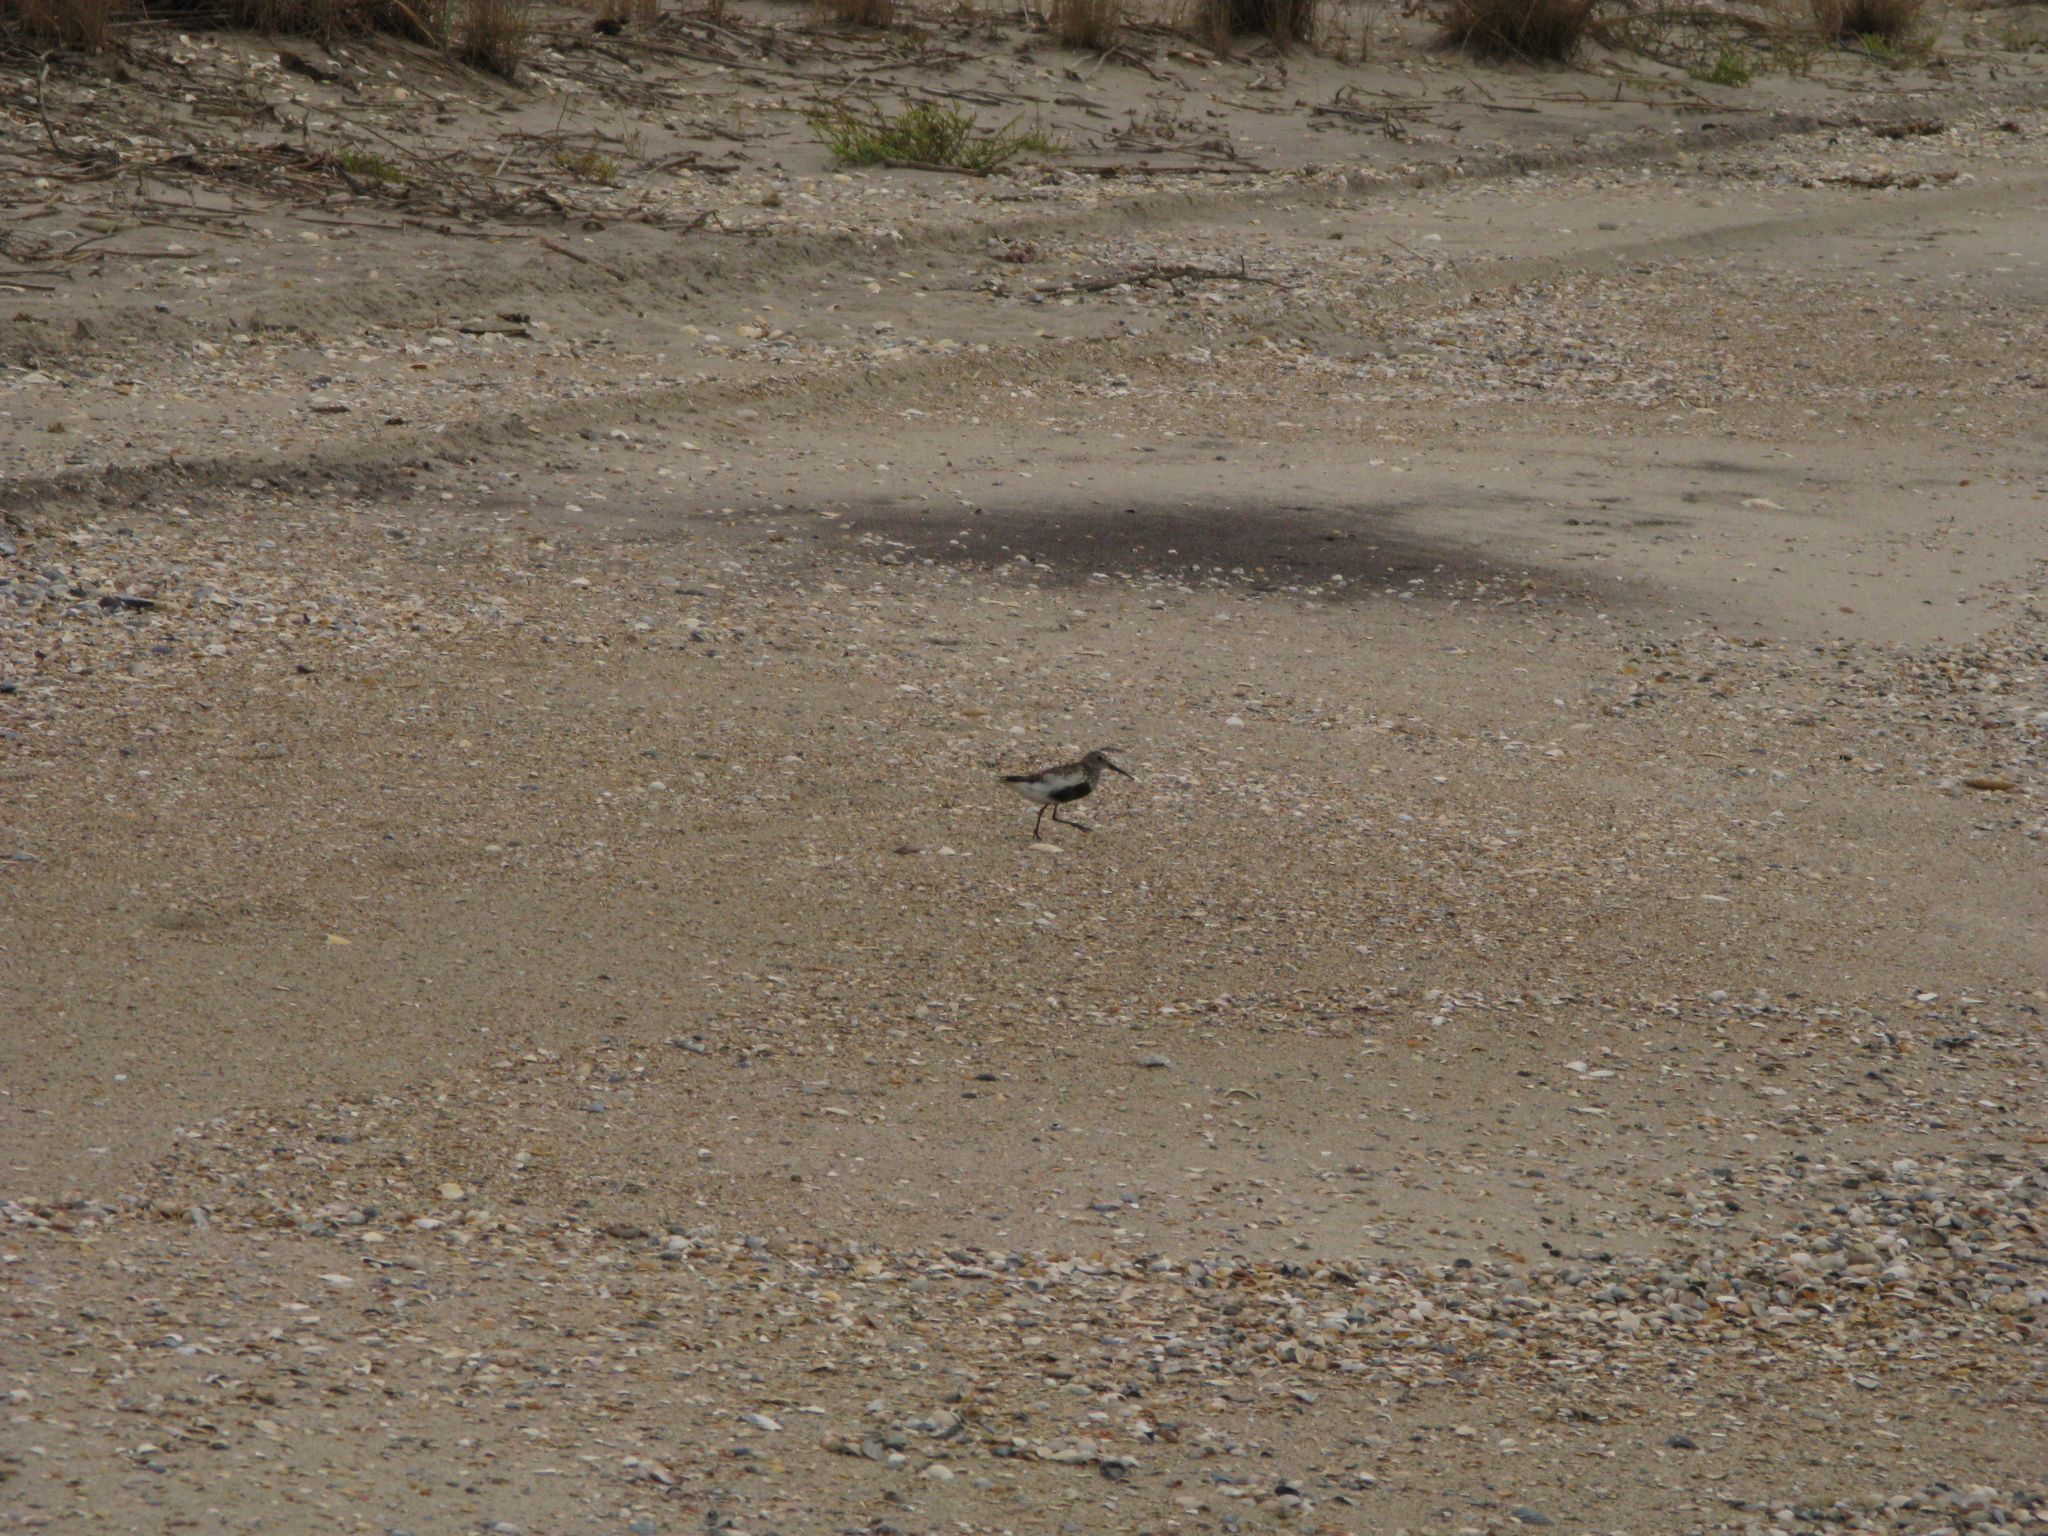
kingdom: Animalia
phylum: Chordata
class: Aves
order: Charadriiformes
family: Scolopacidae
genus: Calidris
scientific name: Calidris alpina
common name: Dunlin
